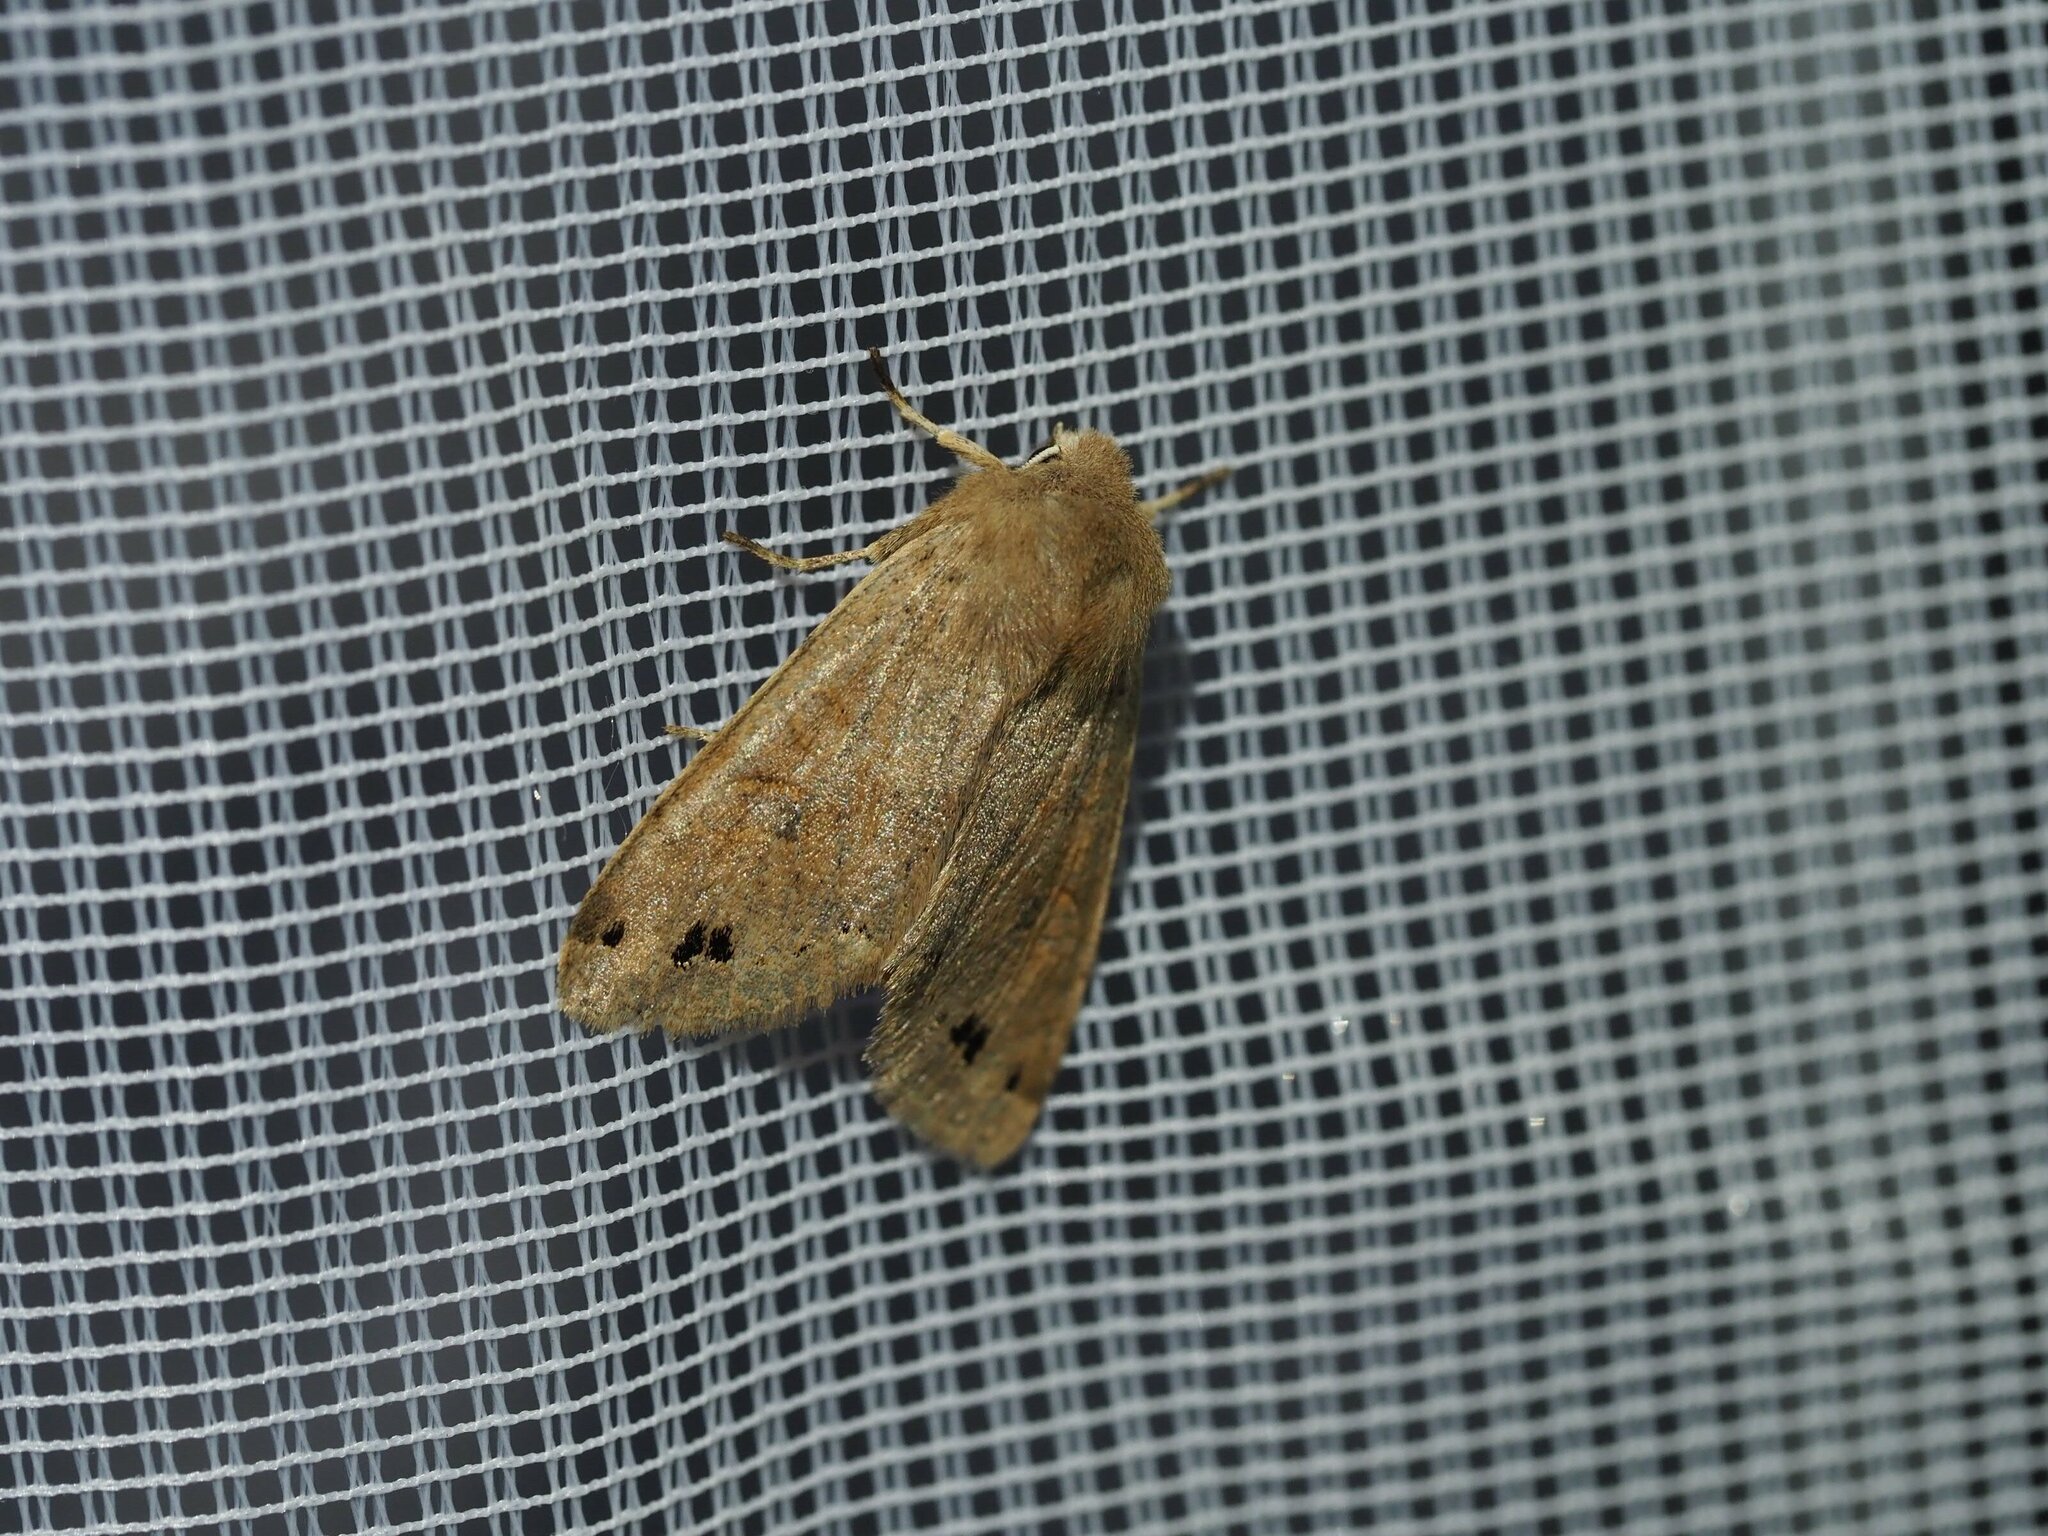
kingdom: Animalia
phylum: Arthropoda
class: Insecta
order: Lepidoptera
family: Noctuidae
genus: Anorthoa
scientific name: Anorthoa munda
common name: Twin-spotted quaker
